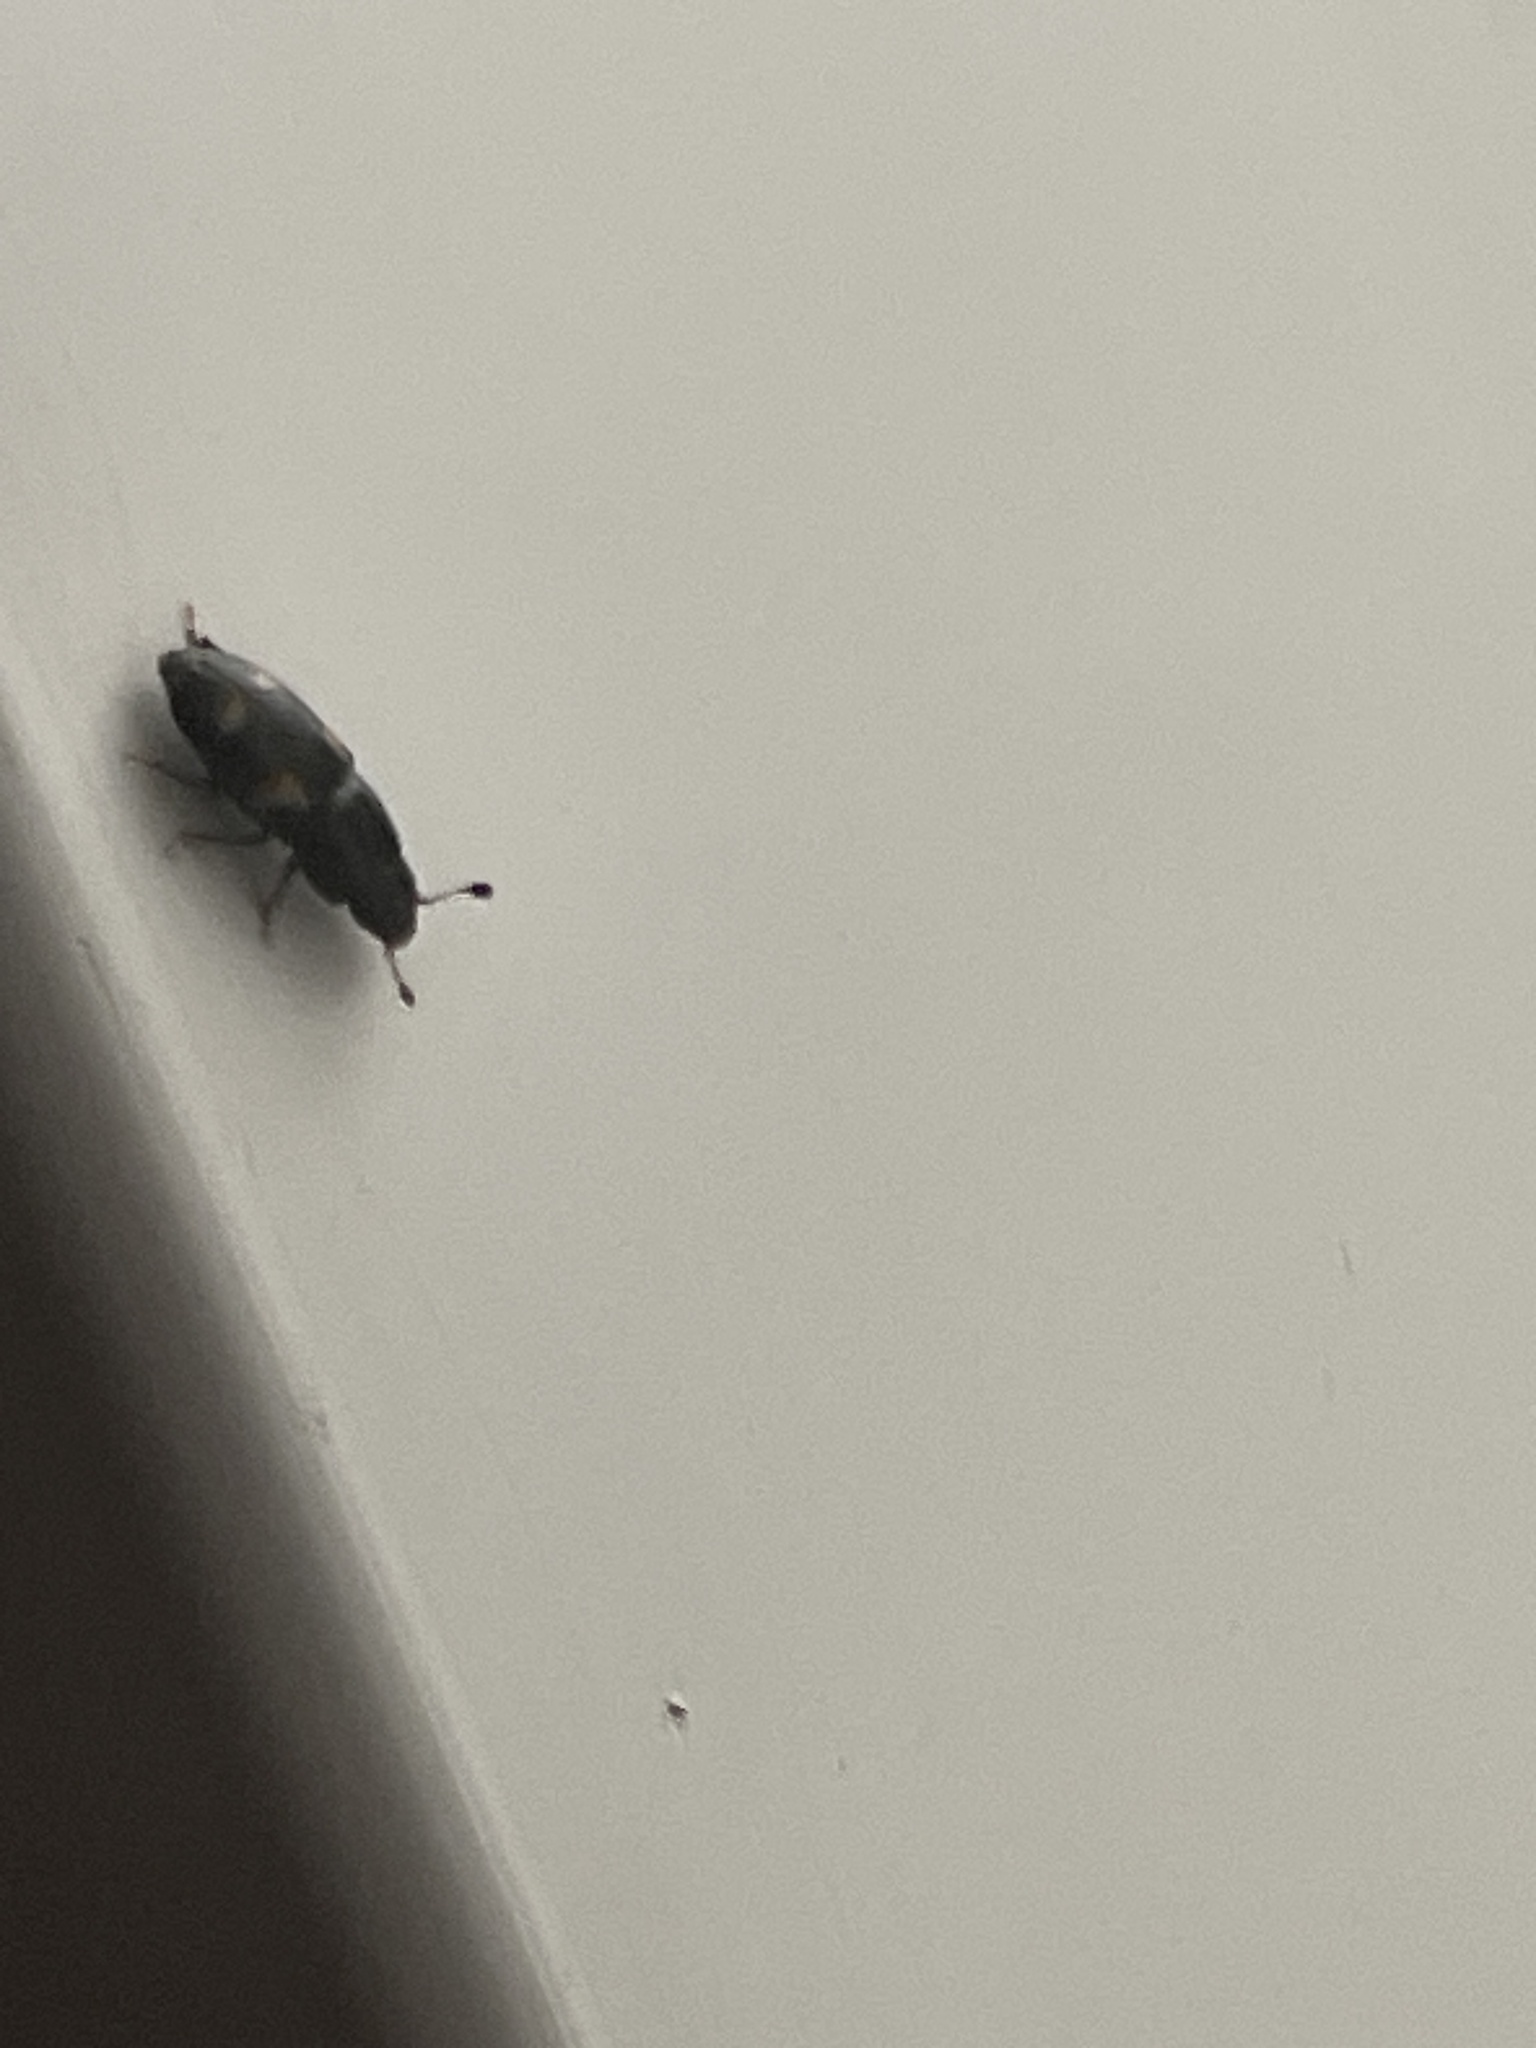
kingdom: Animalia
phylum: Arthropoda
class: Insecta
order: Coleoptera
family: Nitidulidae
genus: Glischrochilus
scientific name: Glischrochilus quadrisignatus
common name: Picnic beetle
